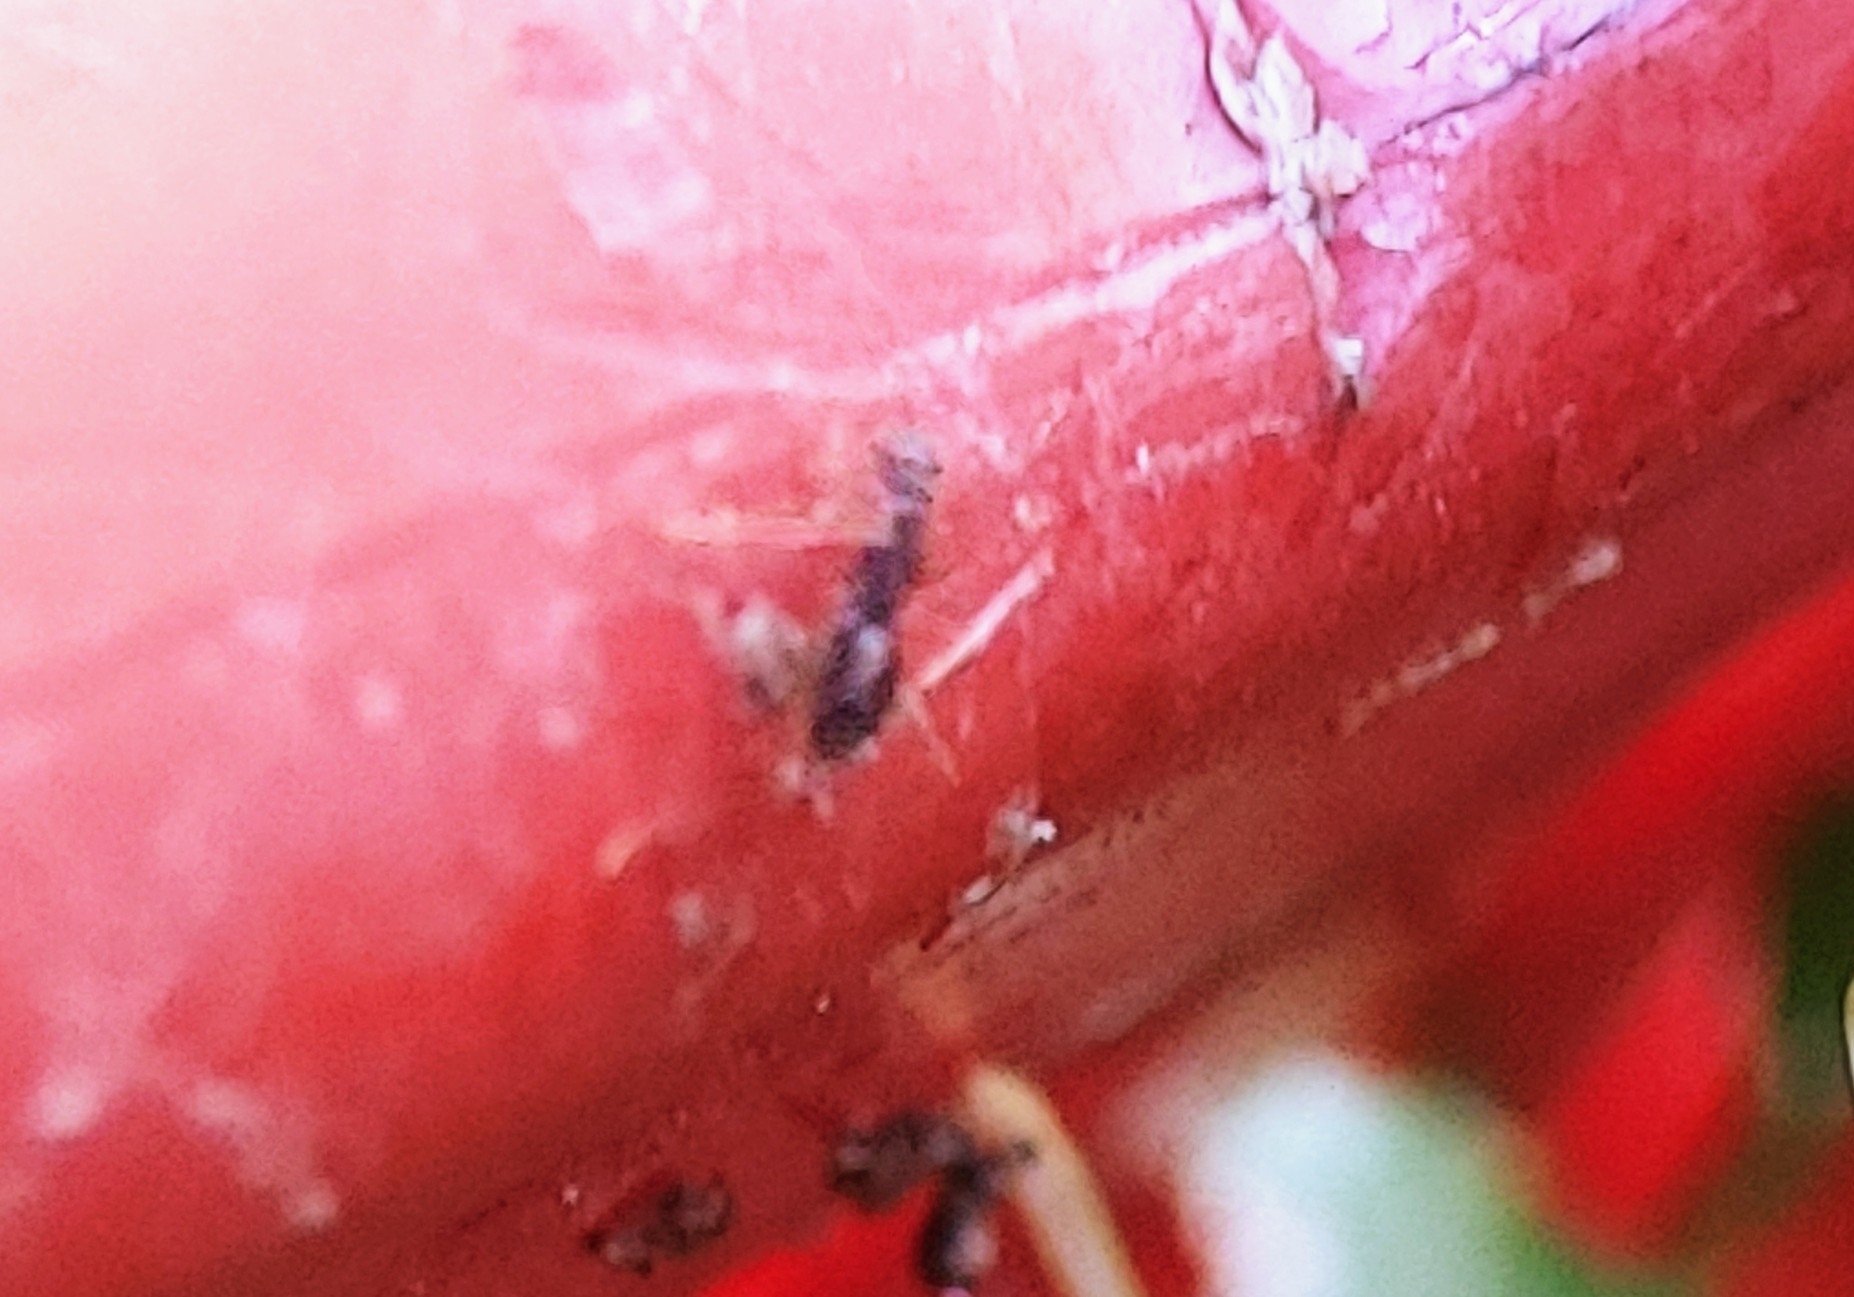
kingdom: Animalia
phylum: Arthropoda
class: Insecta
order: Hymenoptera
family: Formicidae
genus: Paratrechina
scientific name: Paratrechina longicornis
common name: Longhorned crazy ant
